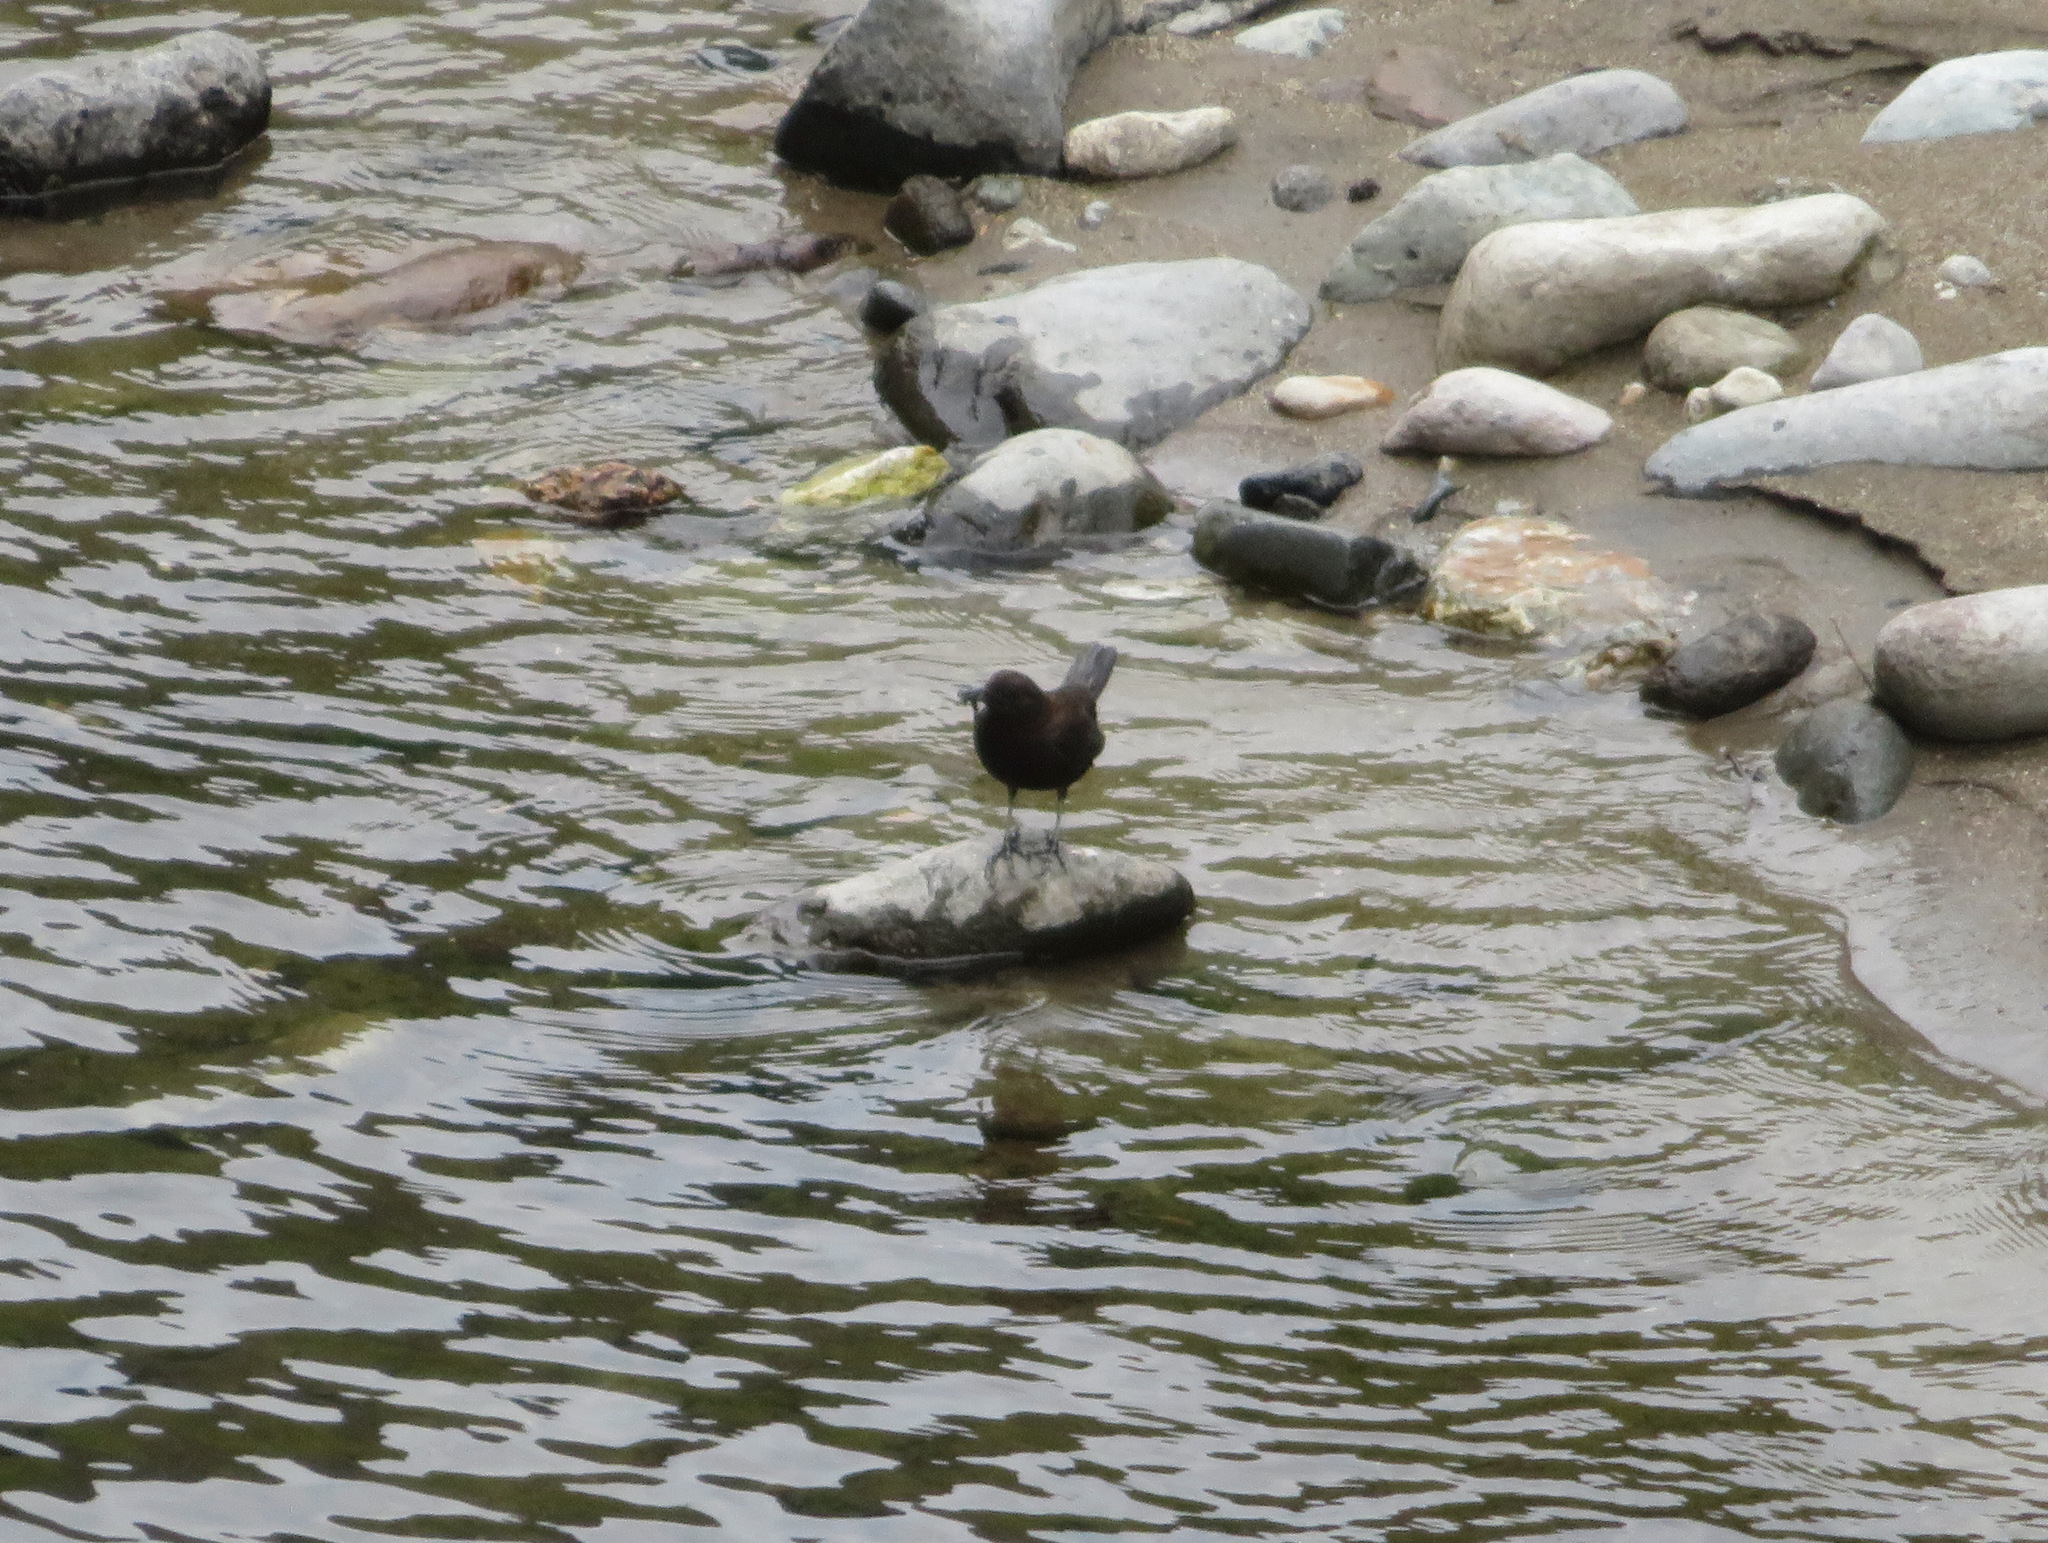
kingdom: Animalia
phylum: Chordata
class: Aves
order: Passeriformes
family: Cinclidae
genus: Cinclus
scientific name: Cinclus pallasii
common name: Brown dipper
